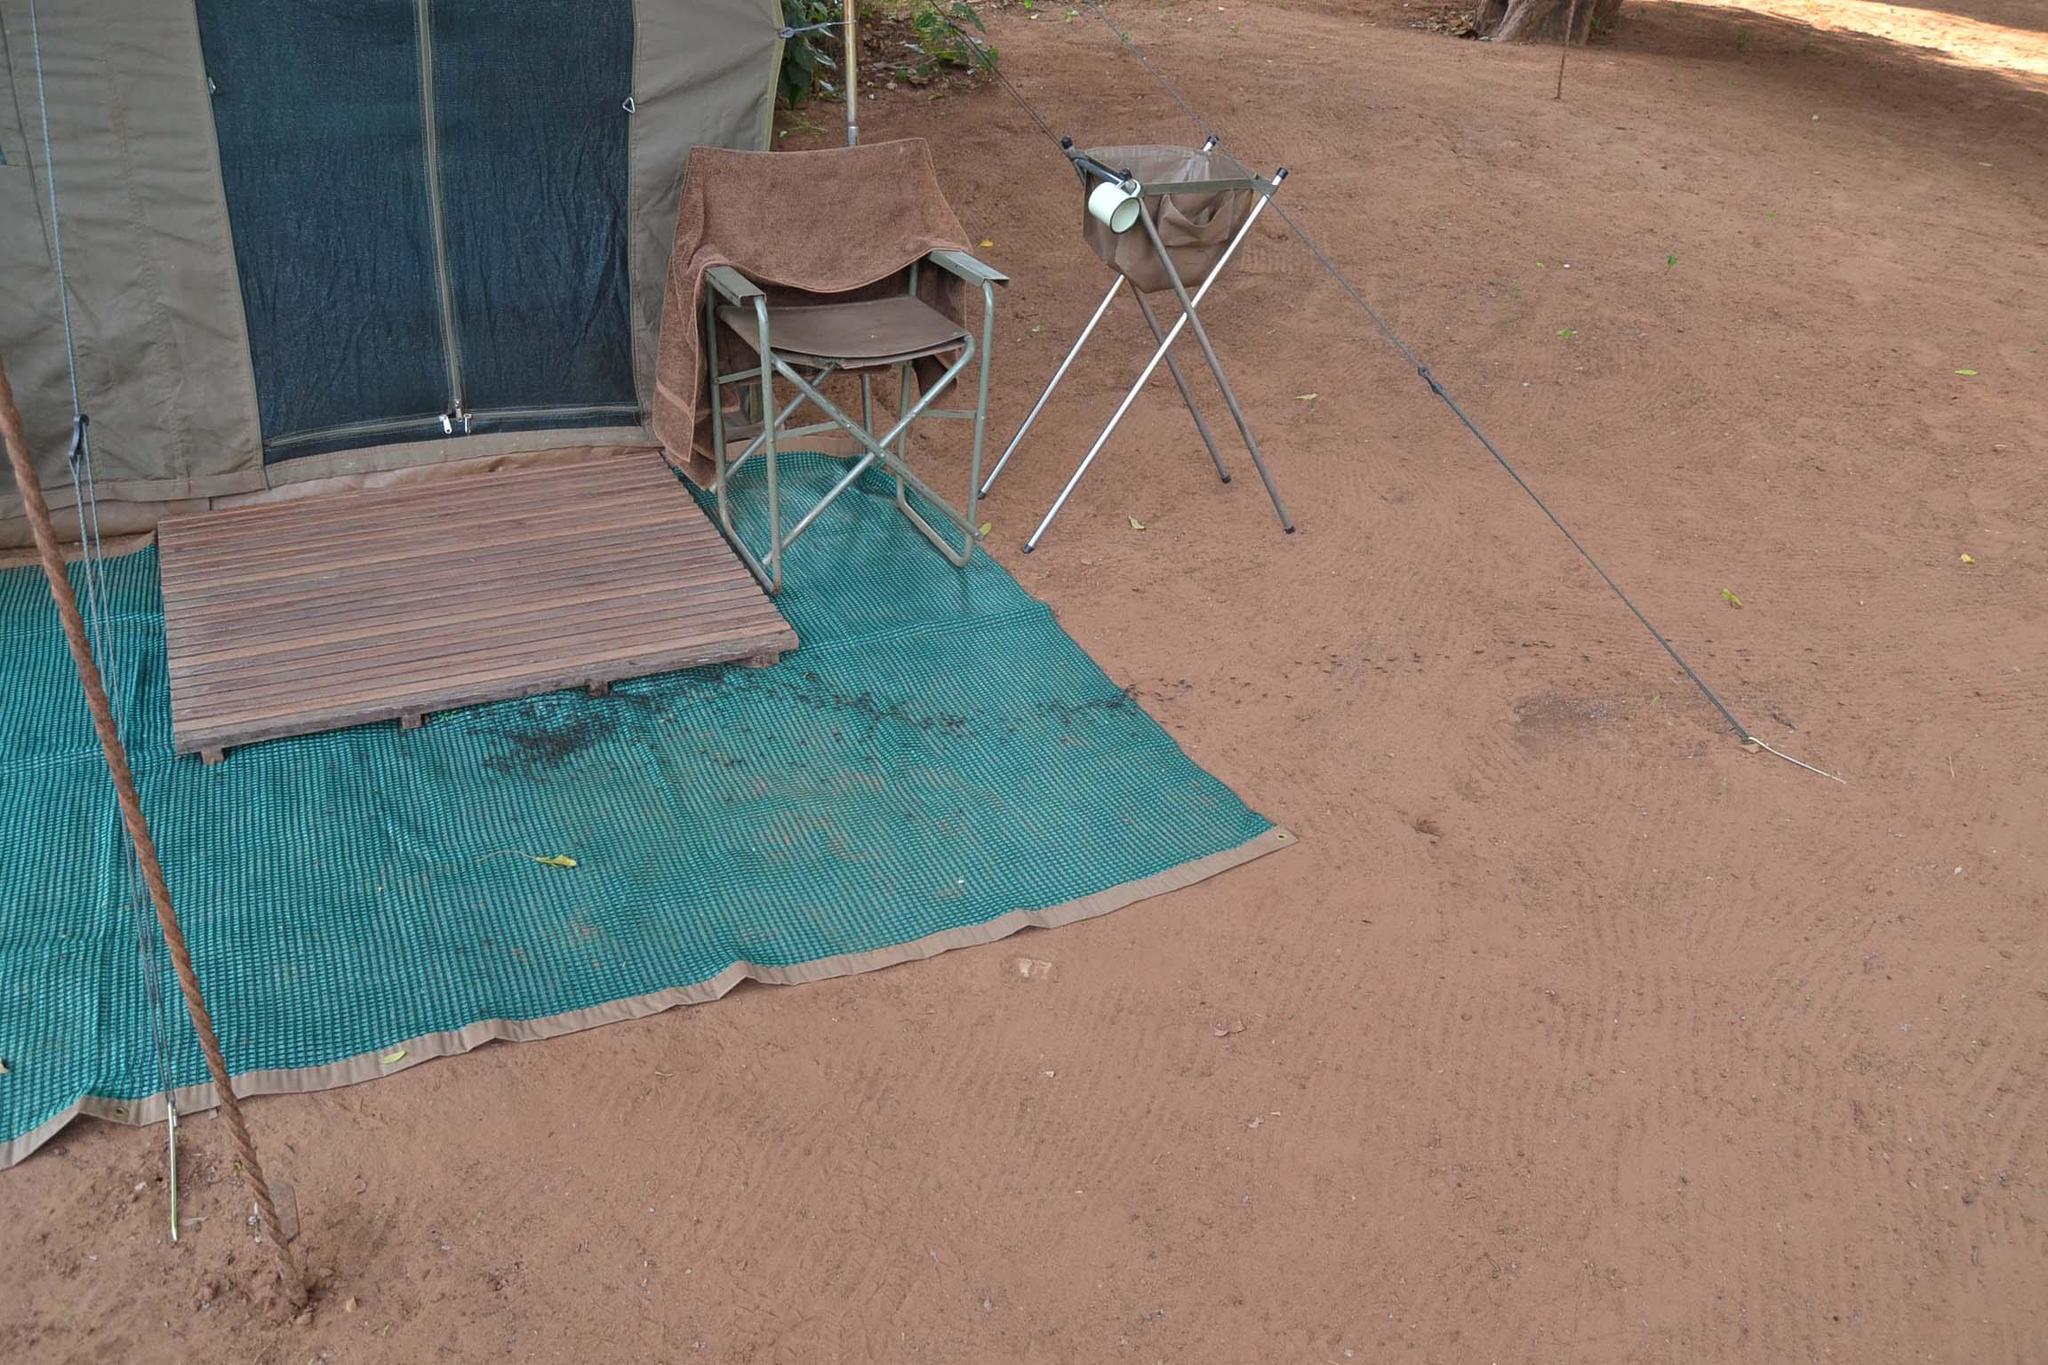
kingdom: Animalia
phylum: Arthropoda
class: Insecta
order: Hymenoptera
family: Formicidae
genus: Megaponera
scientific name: Megaponera analis
